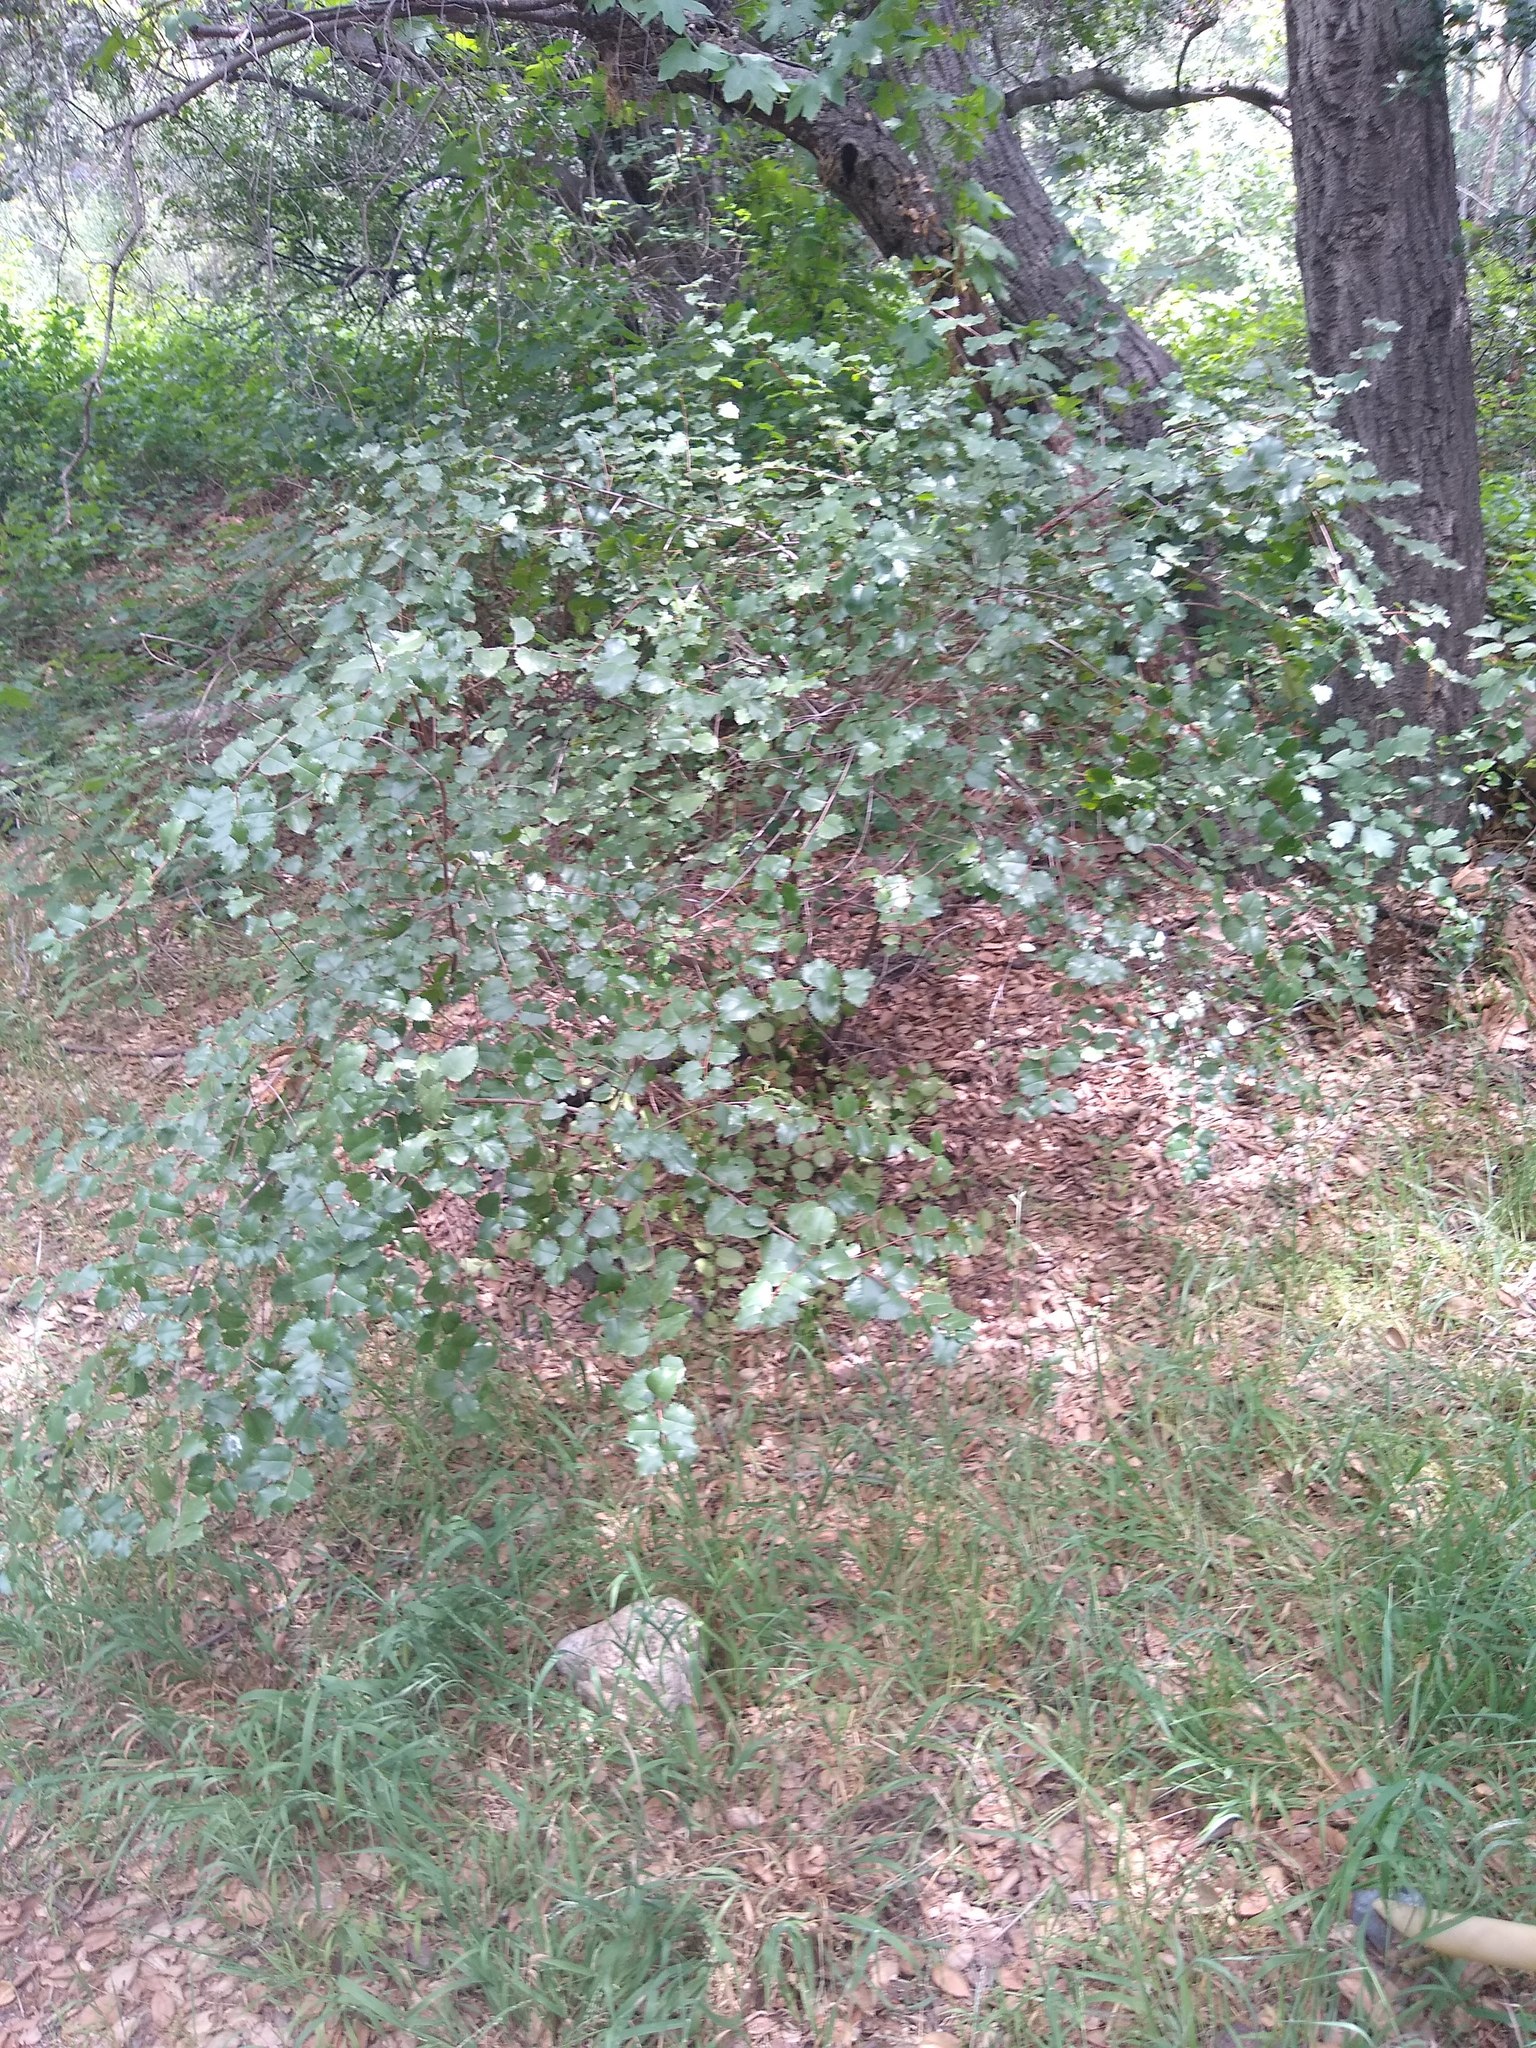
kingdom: Plantae
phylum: Tracheophyta
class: Magnoliopsida
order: Rosales
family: Rosaceae
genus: Prunus
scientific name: Prunus ilicifolia
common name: Hollyleaf cherry
